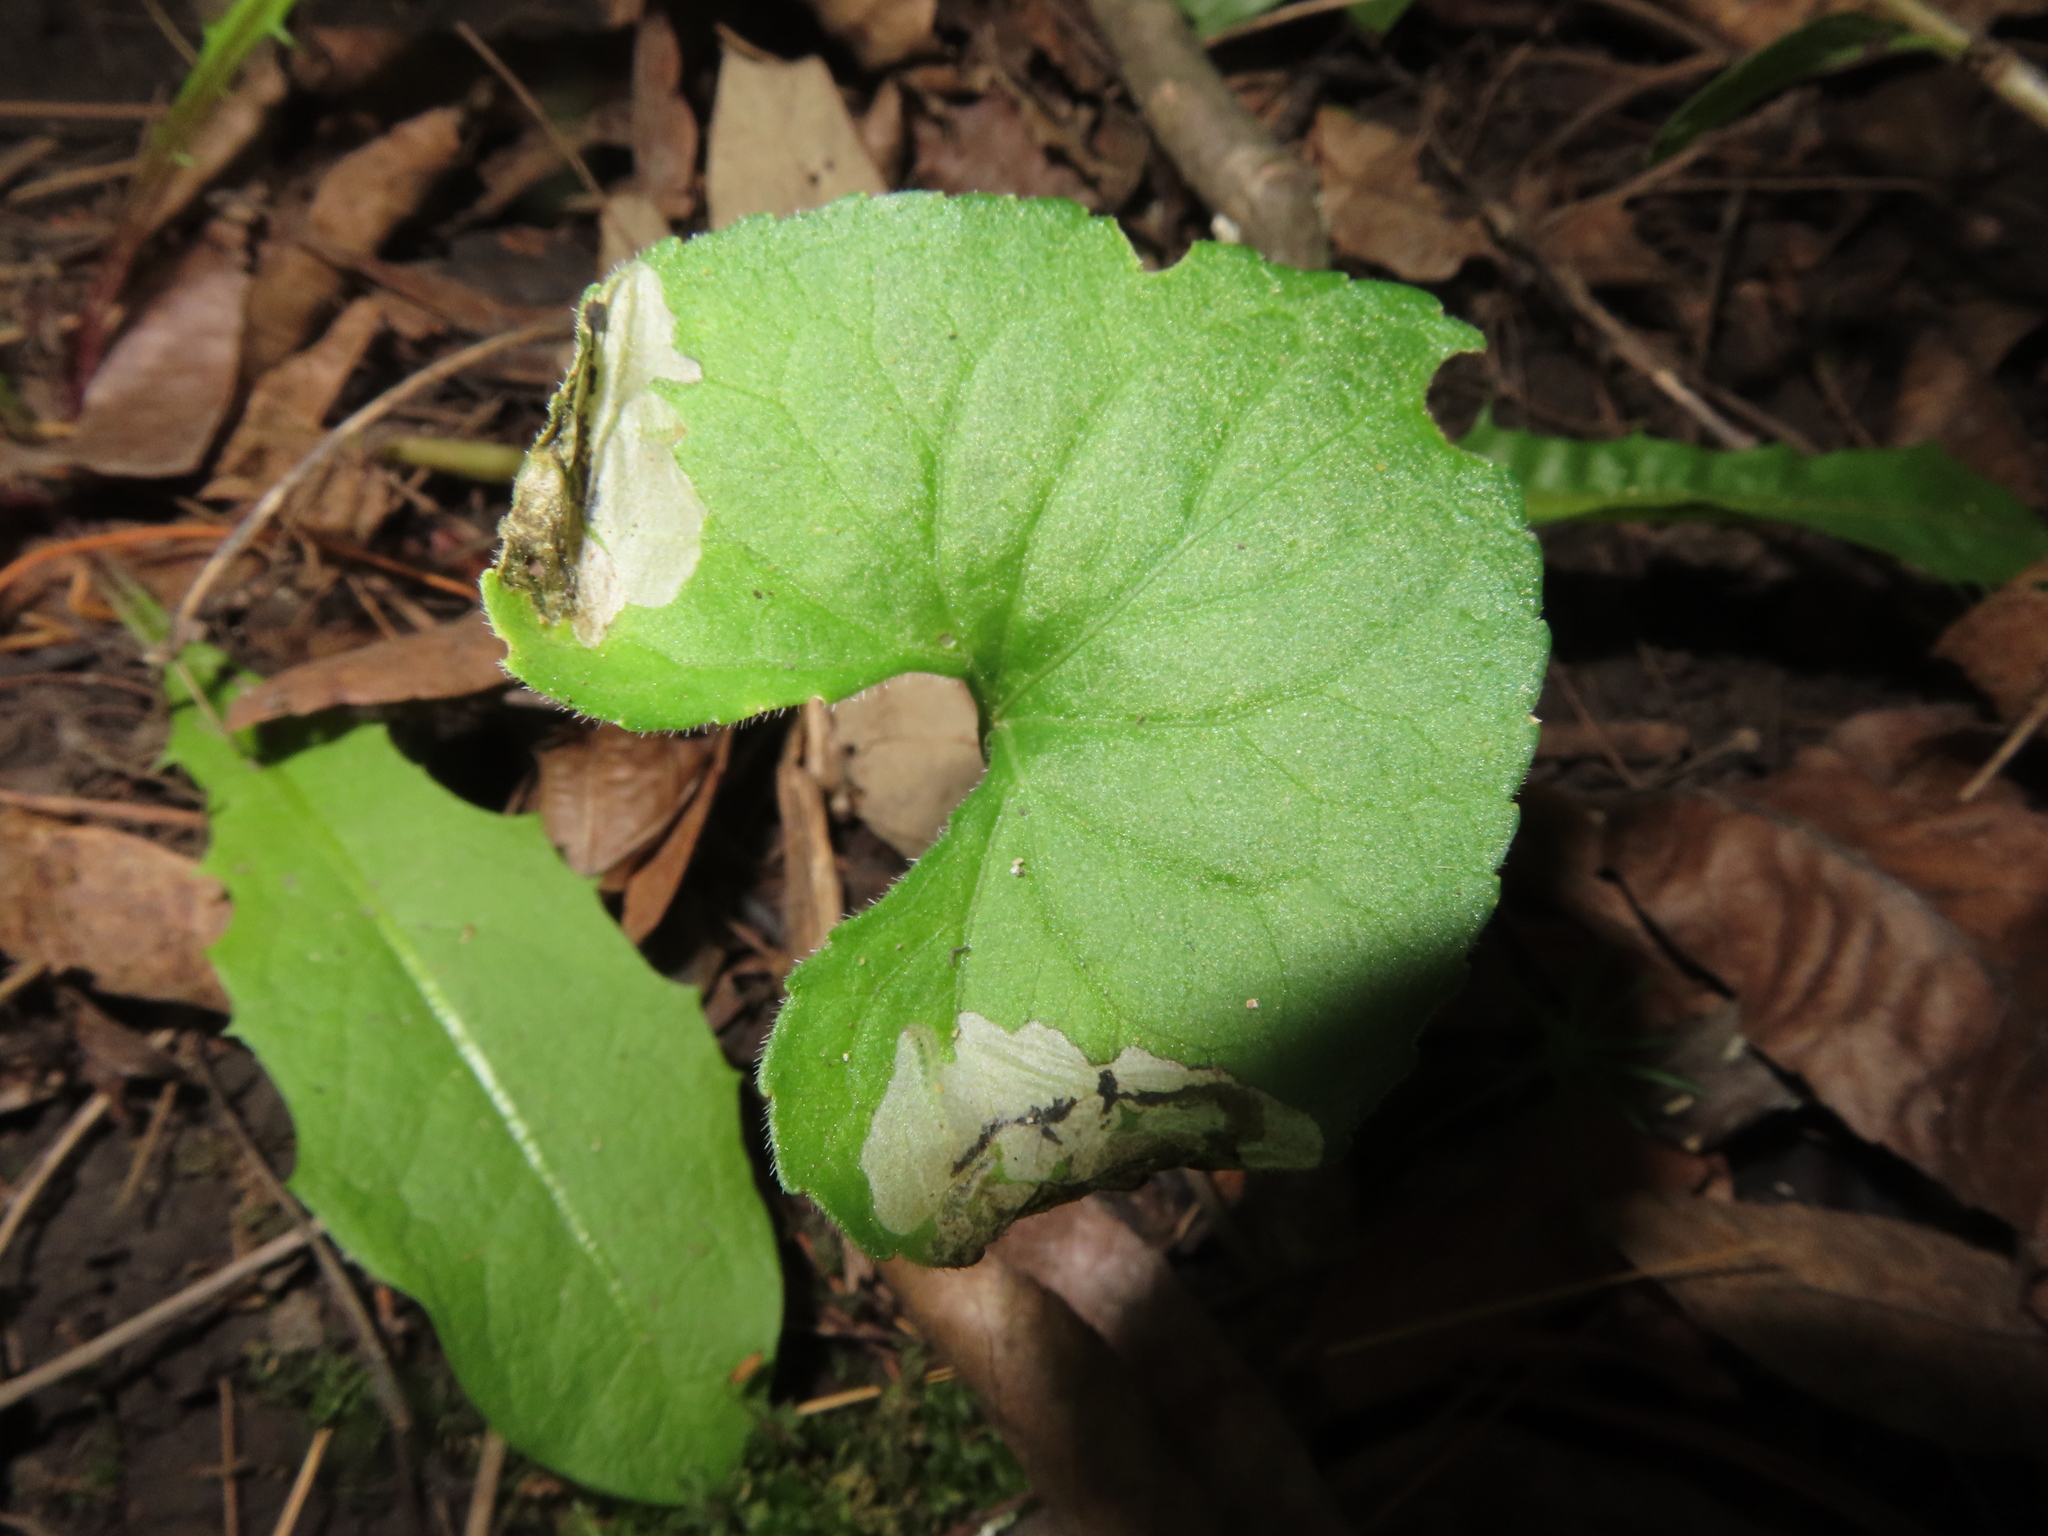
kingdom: Animalia
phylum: Arthropoda
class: Insecta
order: Hymenoptera
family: Tenthredinidae
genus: Nefusa
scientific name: Nefusa ambigua
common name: Violet leafmining sawfly
